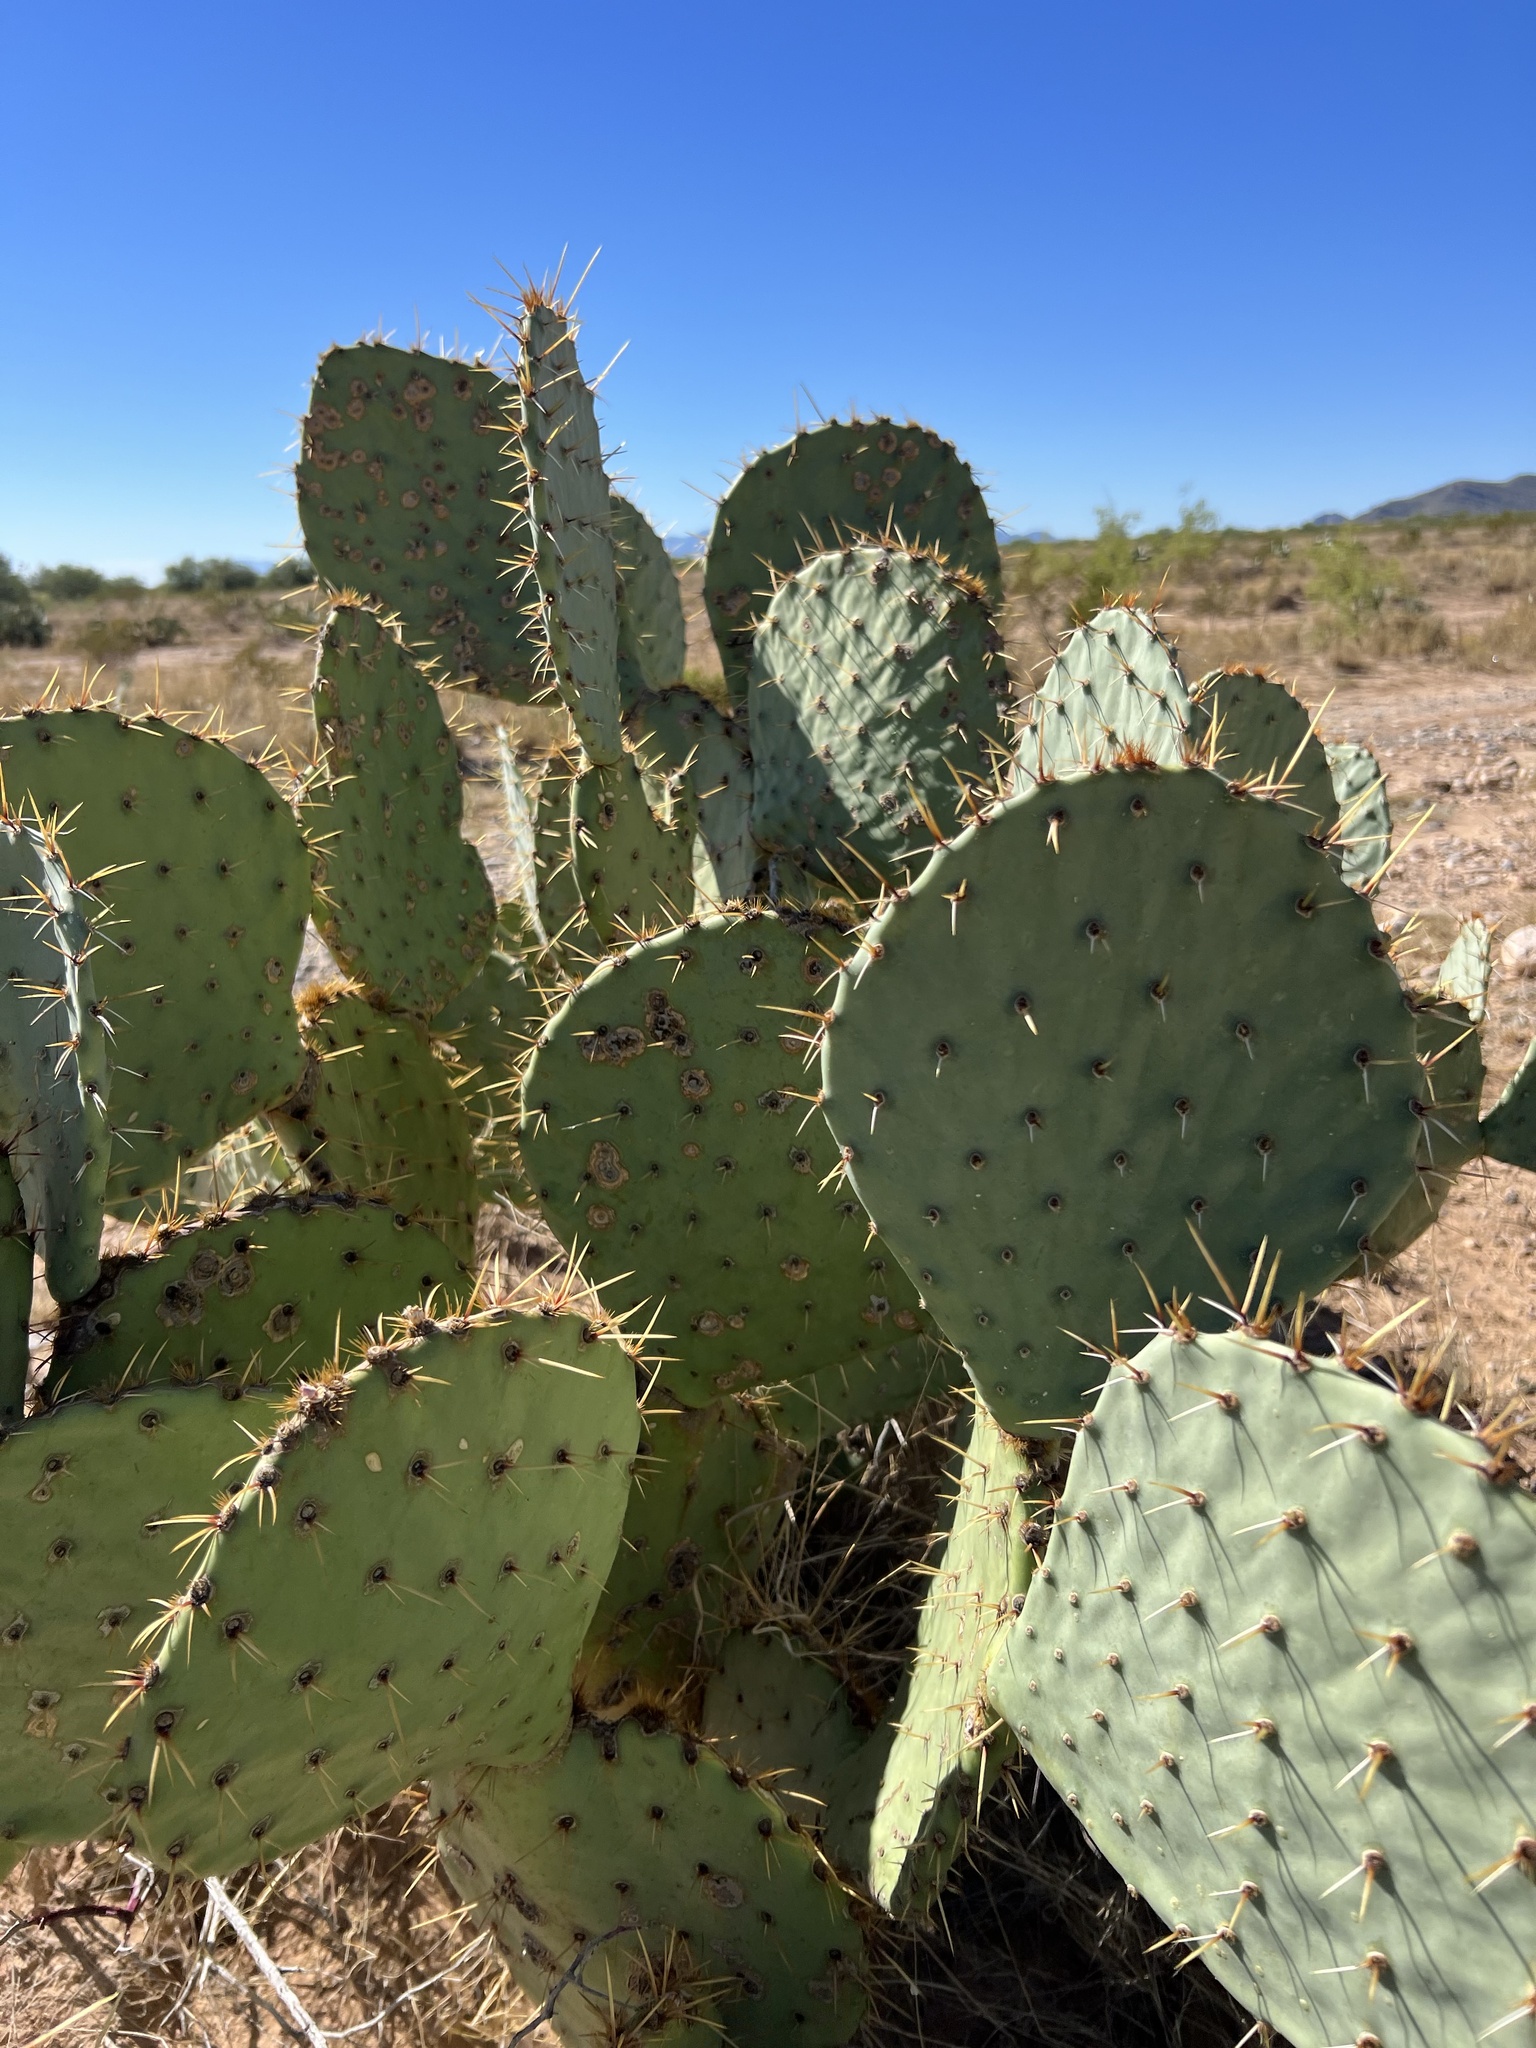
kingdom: Plantae
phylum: Tracheophyta
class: Magnoliopsida
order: Caryophyllales
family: Cactaceae
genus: Opuntia
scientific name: Opuntia engelmannii
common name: Cactus-apple
